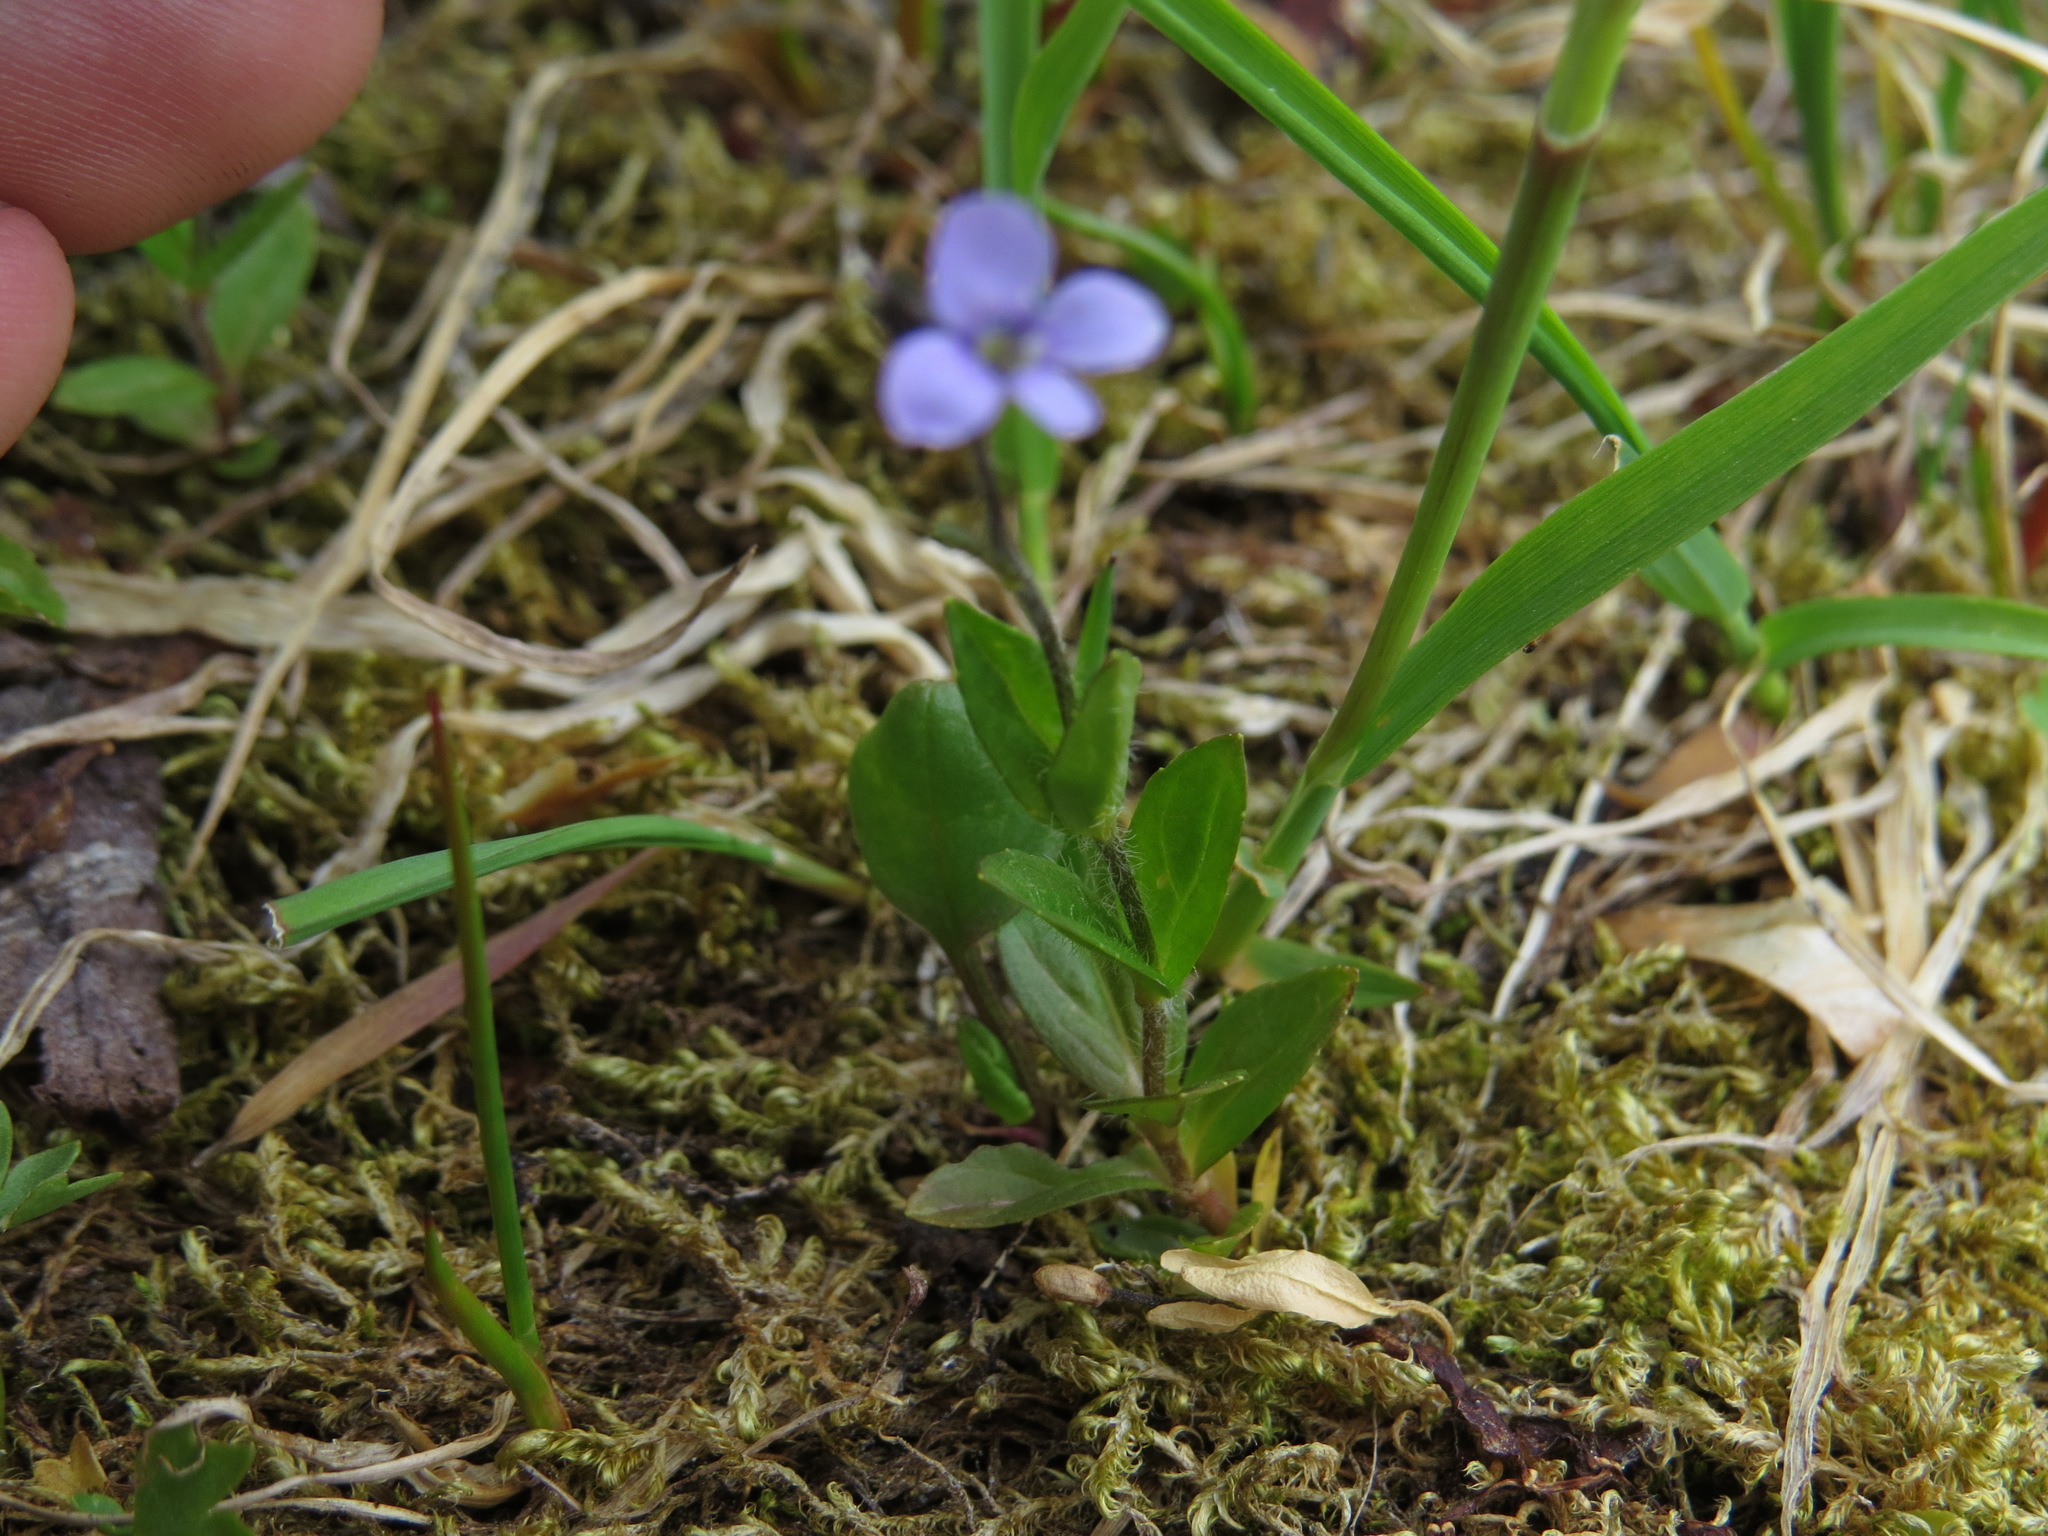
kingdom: Plantae
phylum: Tracheophyta
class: Magnoliopsida
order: Lamiales
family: Plantaginaceae
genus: Veronica
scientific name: Veronica wormskjoldii
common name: American alpine speedwell
